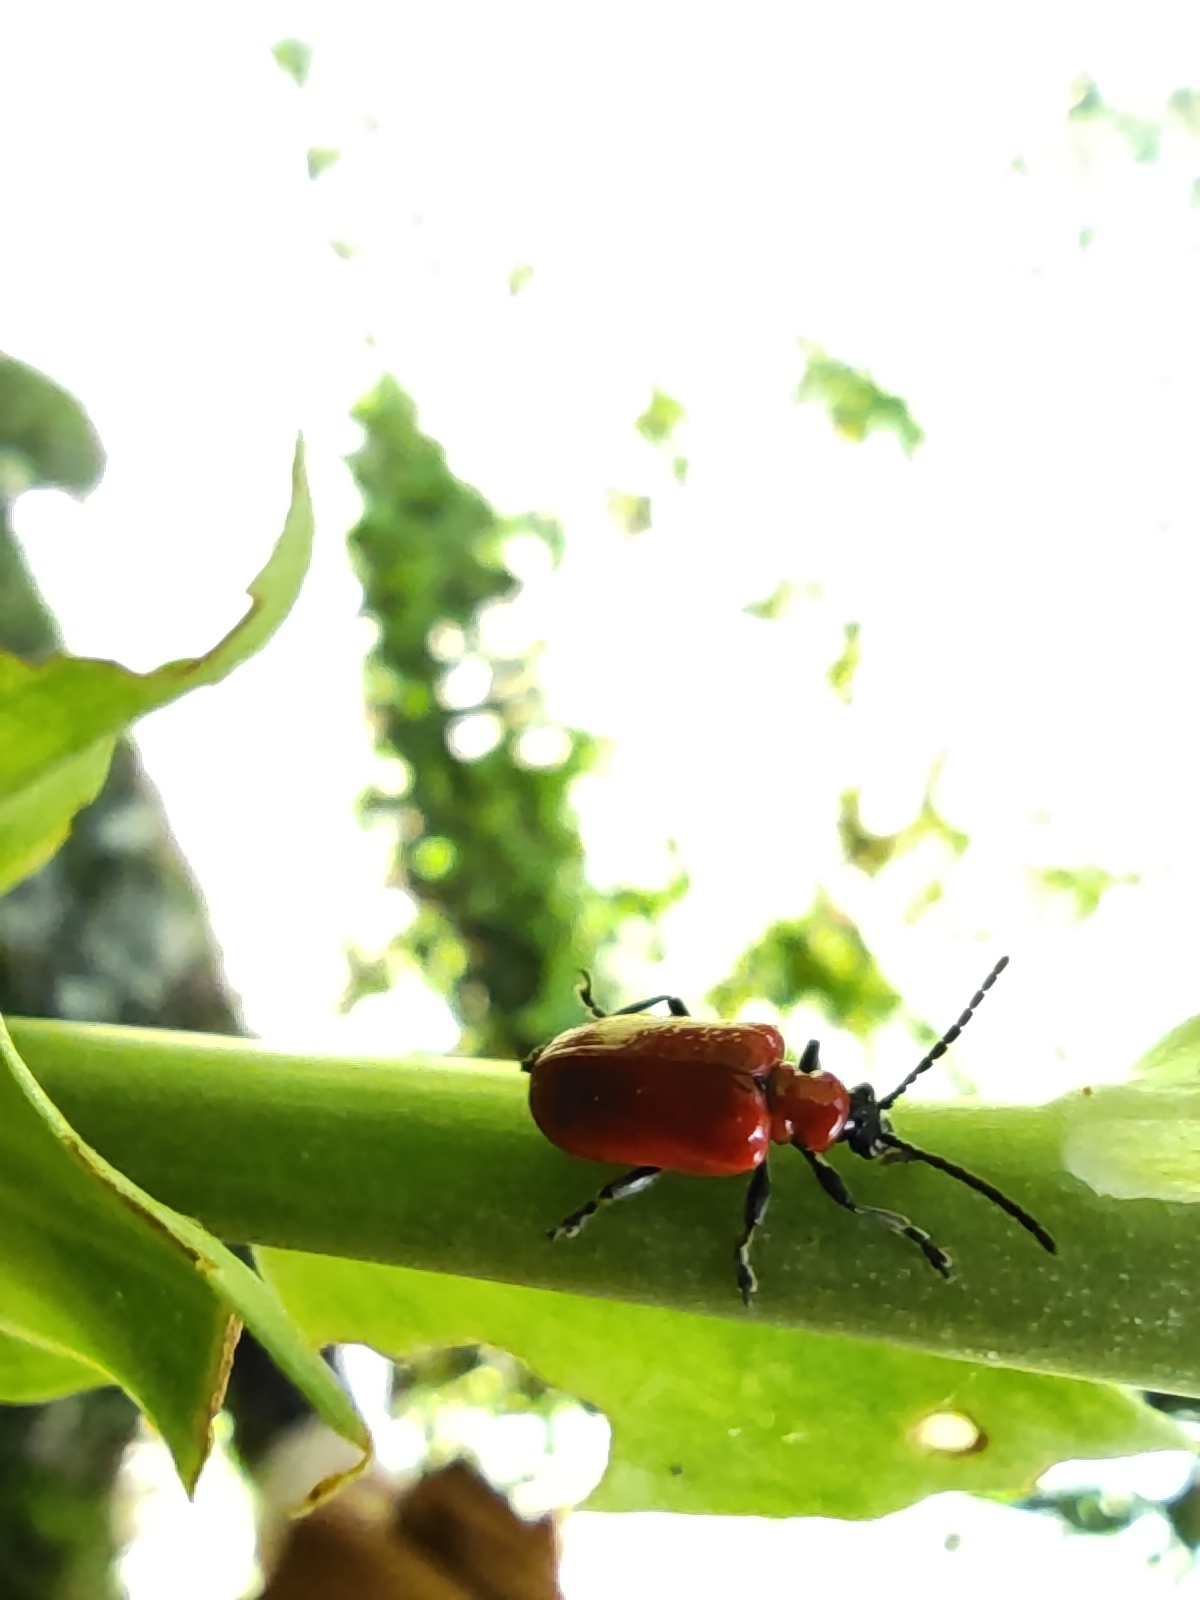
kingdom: Animalia
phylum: Arthropoda
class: Insecta
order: Coleoptera
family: Chrysomelidae
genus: Lilioceris
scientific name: Lilioceris lilii
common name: Lily beetle
